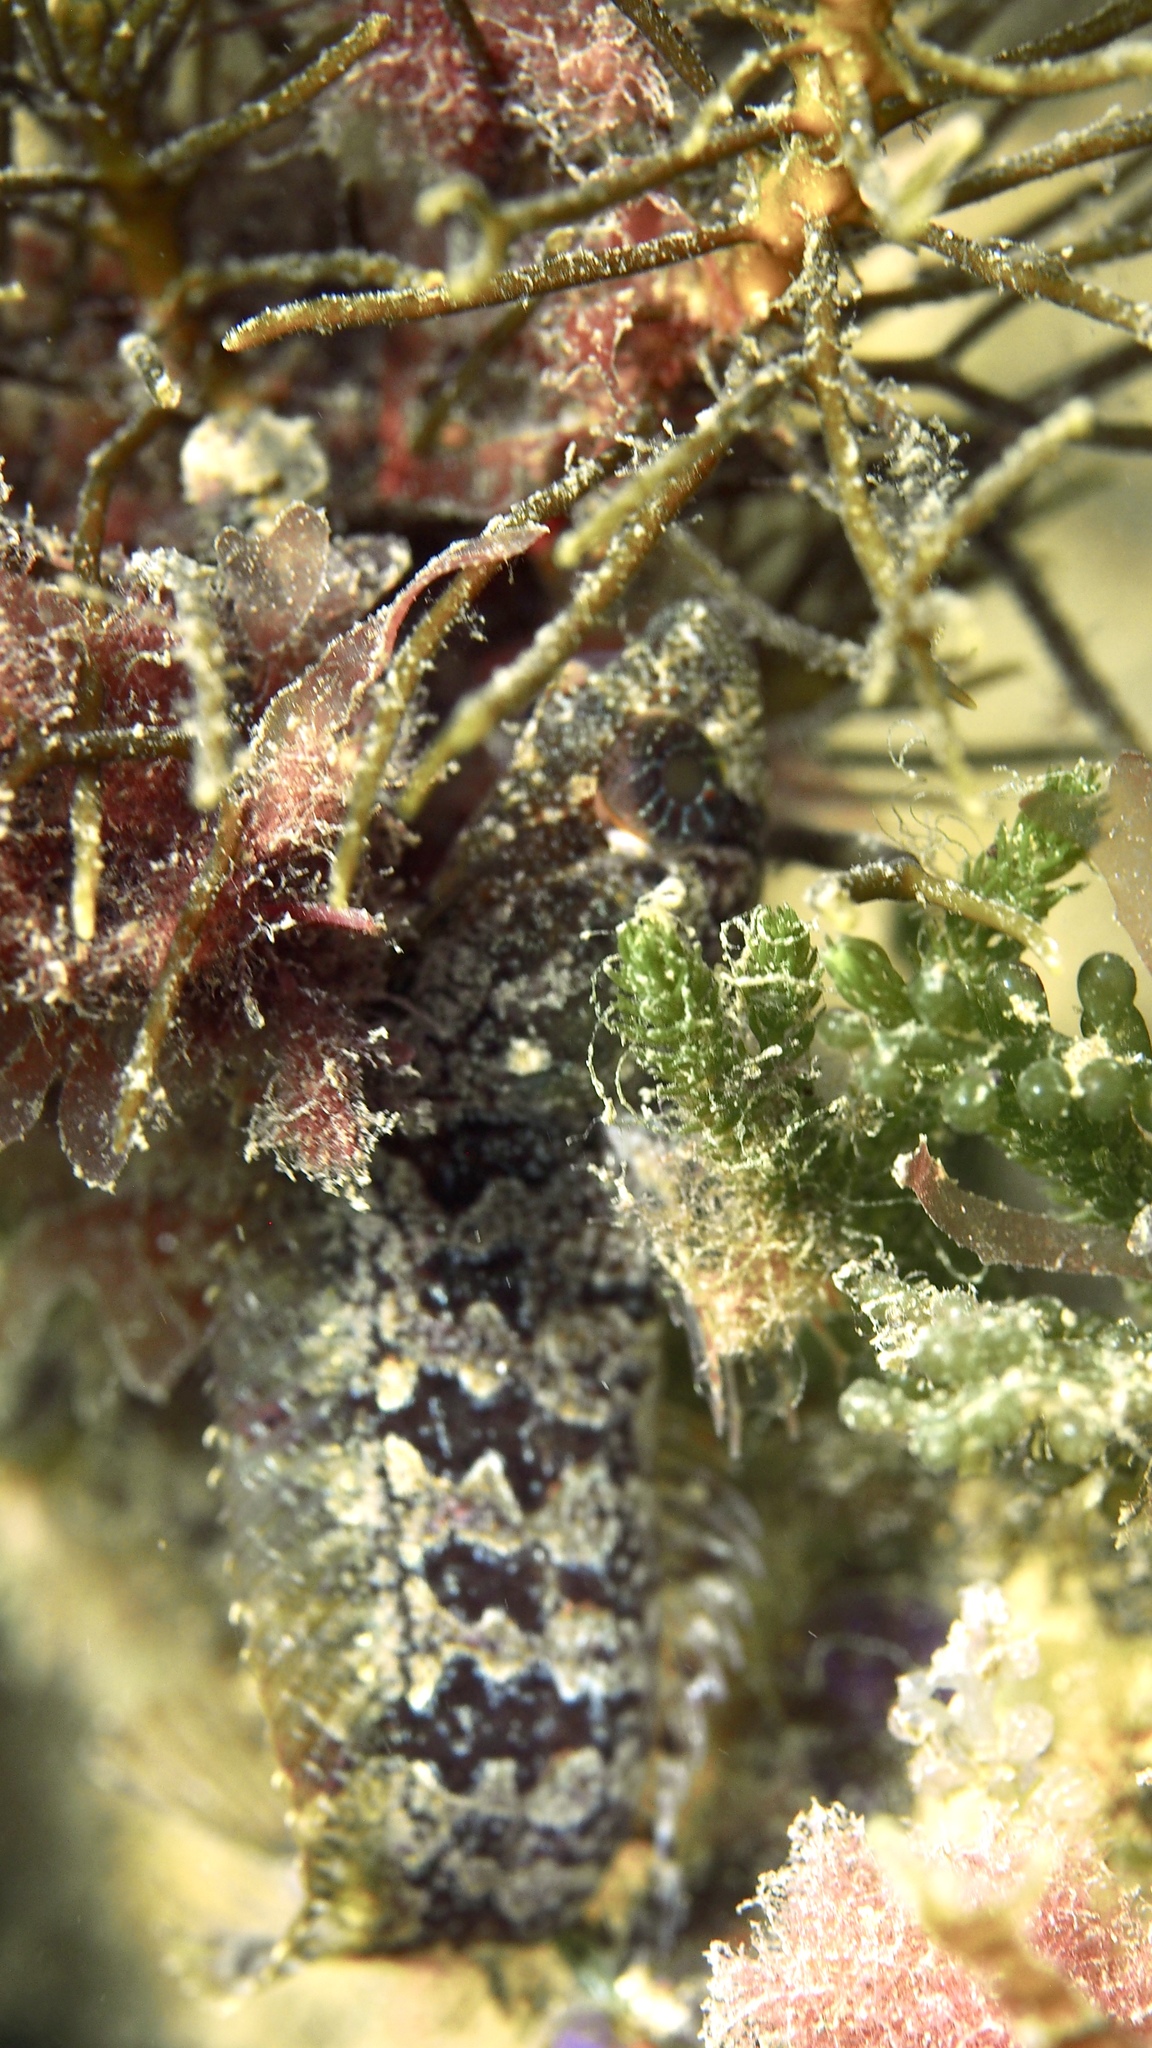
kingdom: Animalia
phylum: Chordata
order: Perciformes
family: Clinidae
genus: Heteroclinus
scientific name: Heteroclinus perspicillatus
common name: Common weedfish
